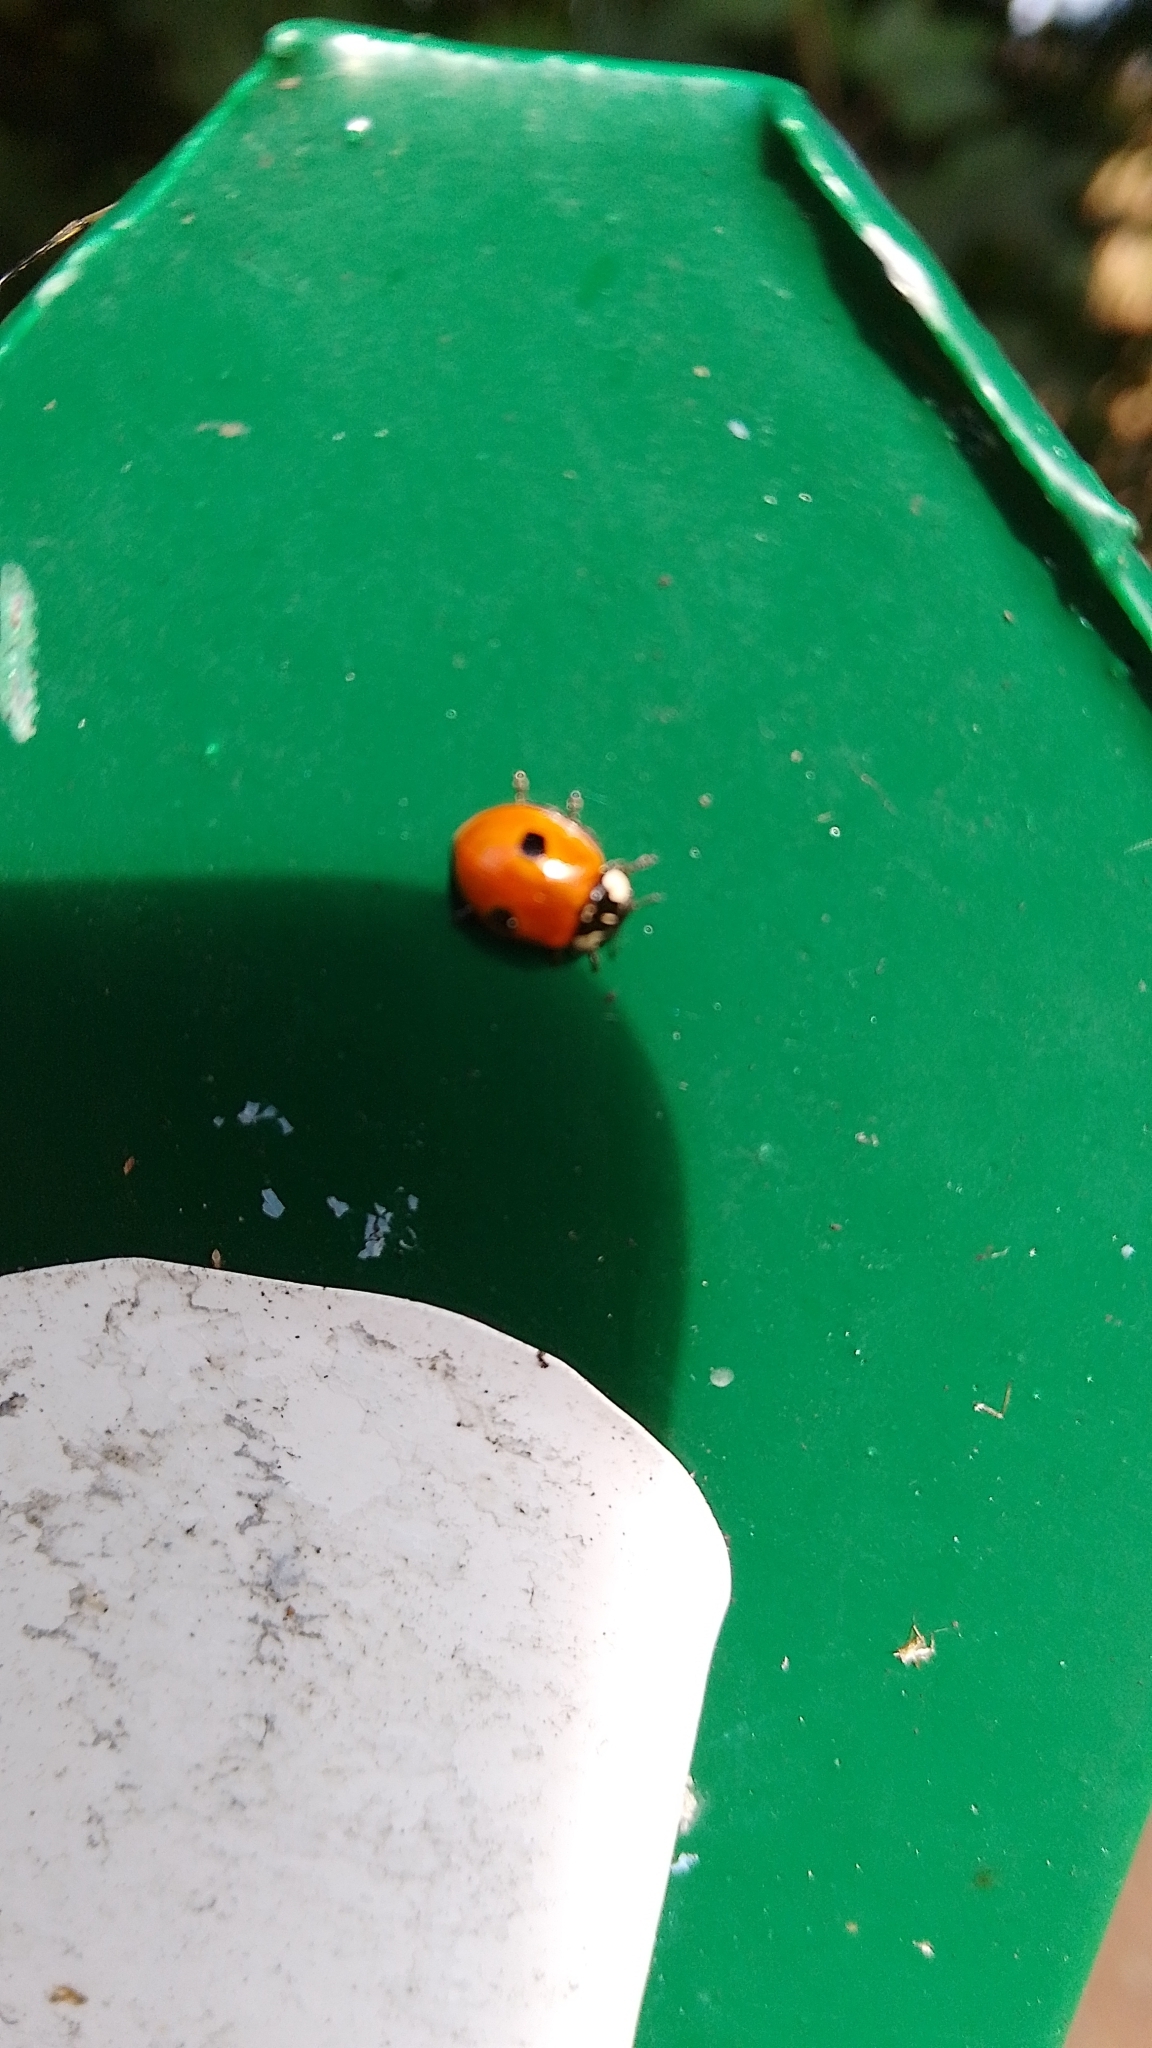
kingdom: Animalia
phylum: Arthropoda
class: Insecta
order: Coleoptera
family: Coccinellidae
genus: Adalia
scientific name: Adalia bipunctata
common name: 2-spot ladybird
